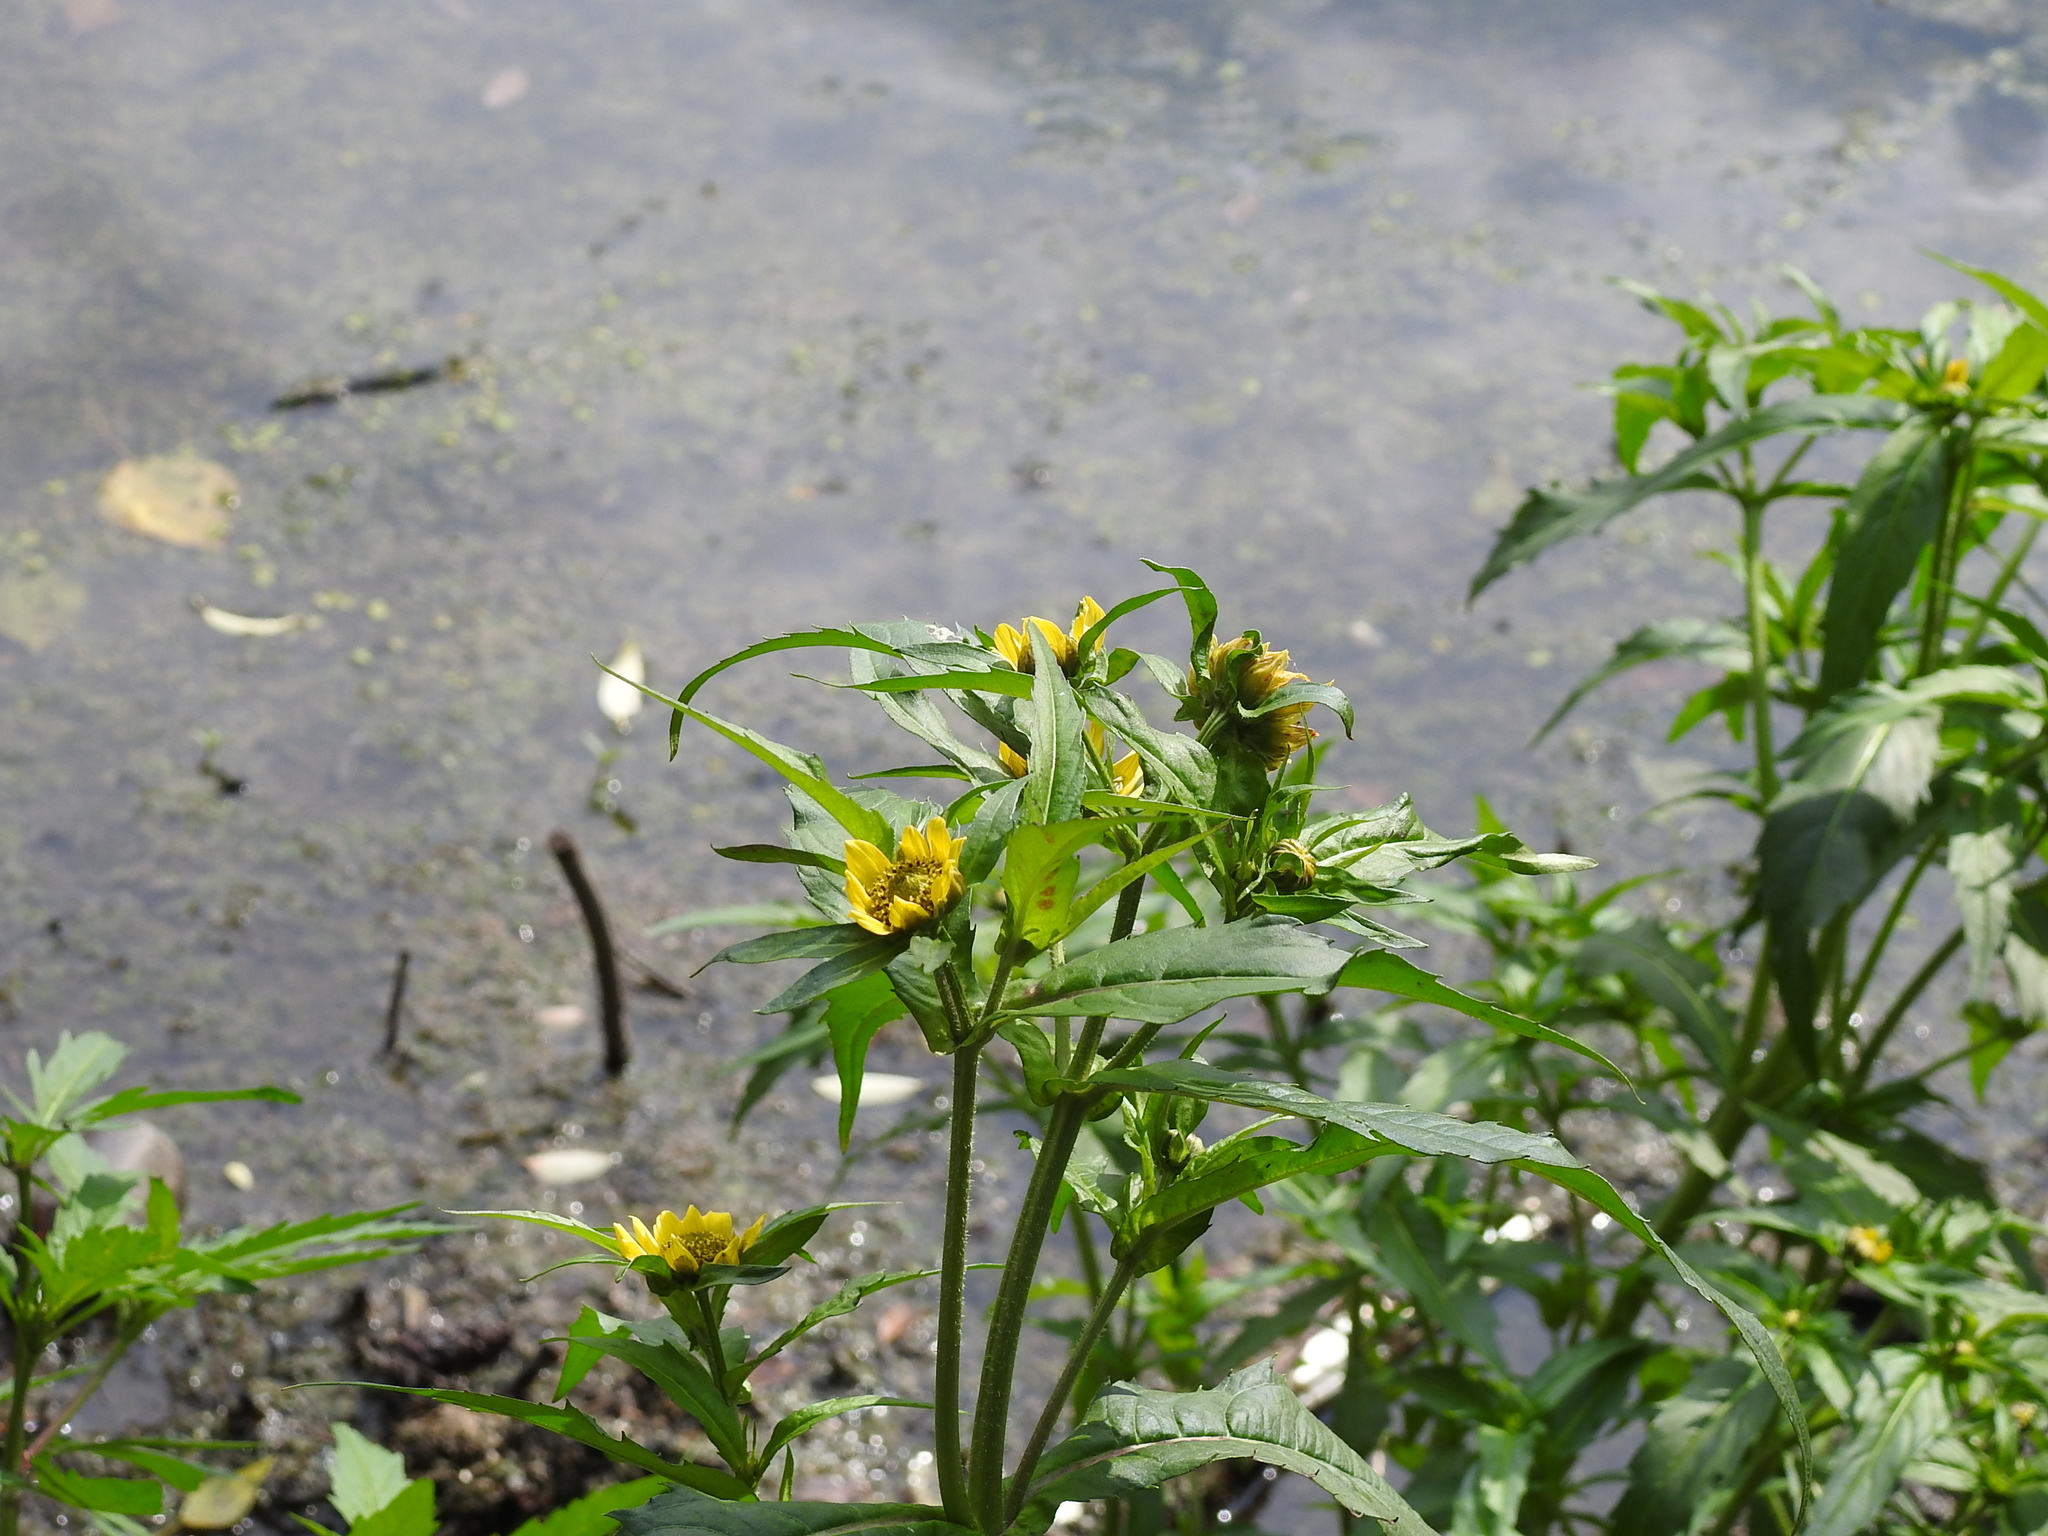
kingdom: Plantae
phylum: Tracheophyta
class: Magnoliopsida
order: Asterales
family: Asteraceae
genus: Bidens
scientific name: Bidens cernua
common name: Nodding bur-marigold
